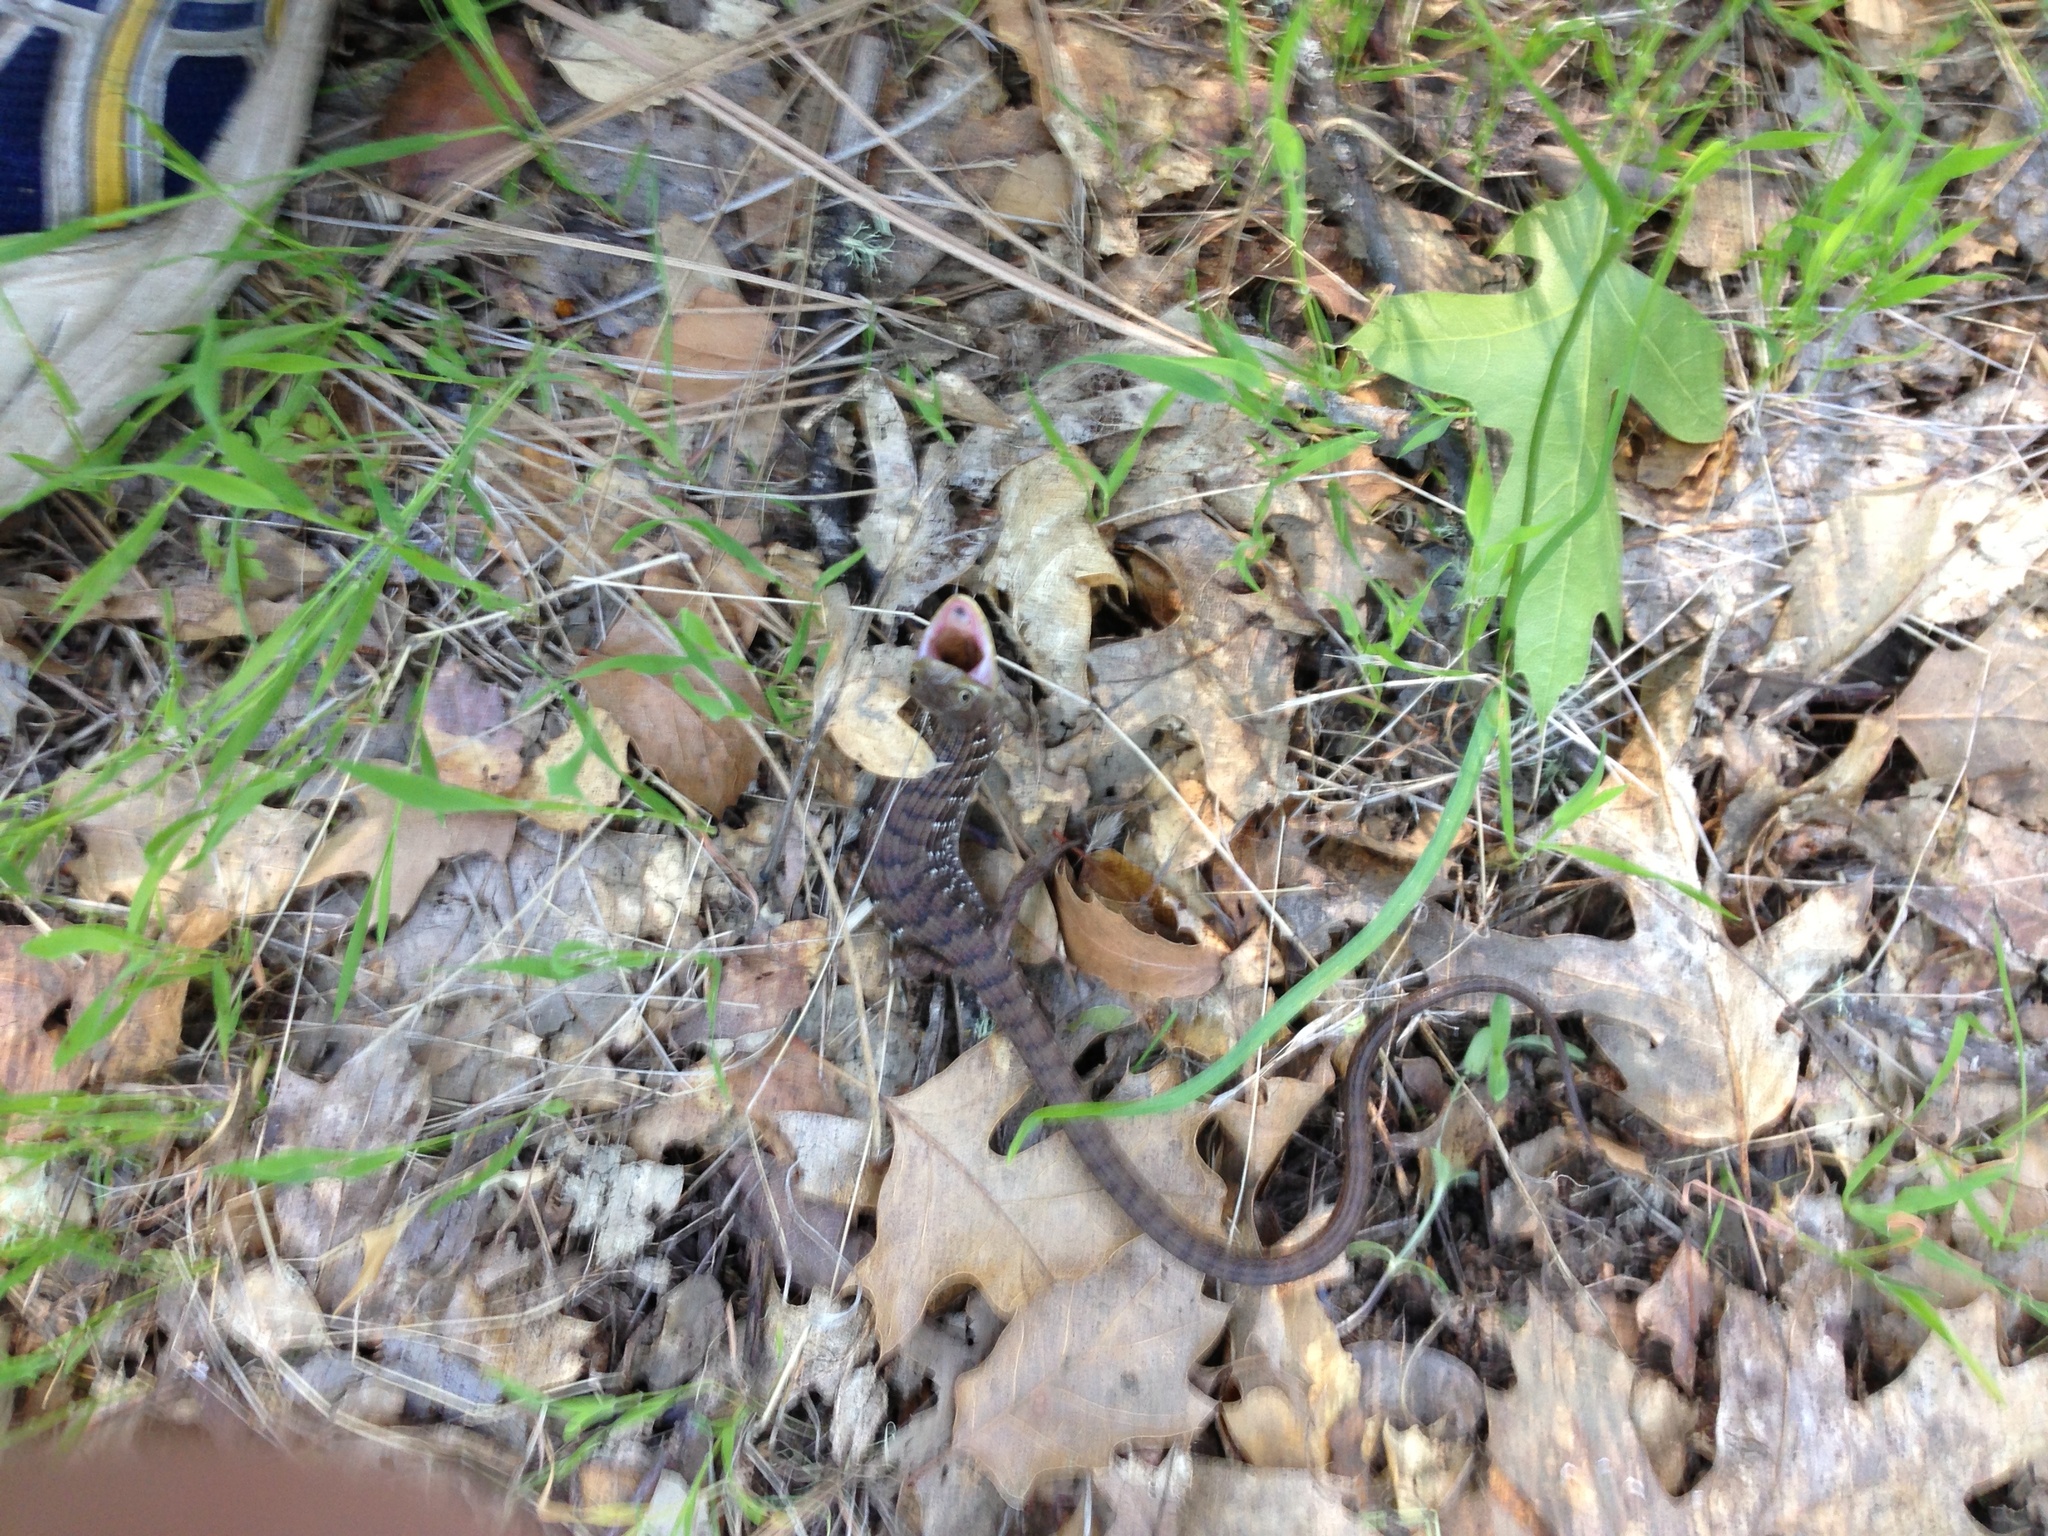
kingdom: Animalia
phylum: Chordata
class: Squamata
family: Anguidae
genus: Elgaria
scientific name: Elgaria multicarinata
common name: Southern alligator lizard
